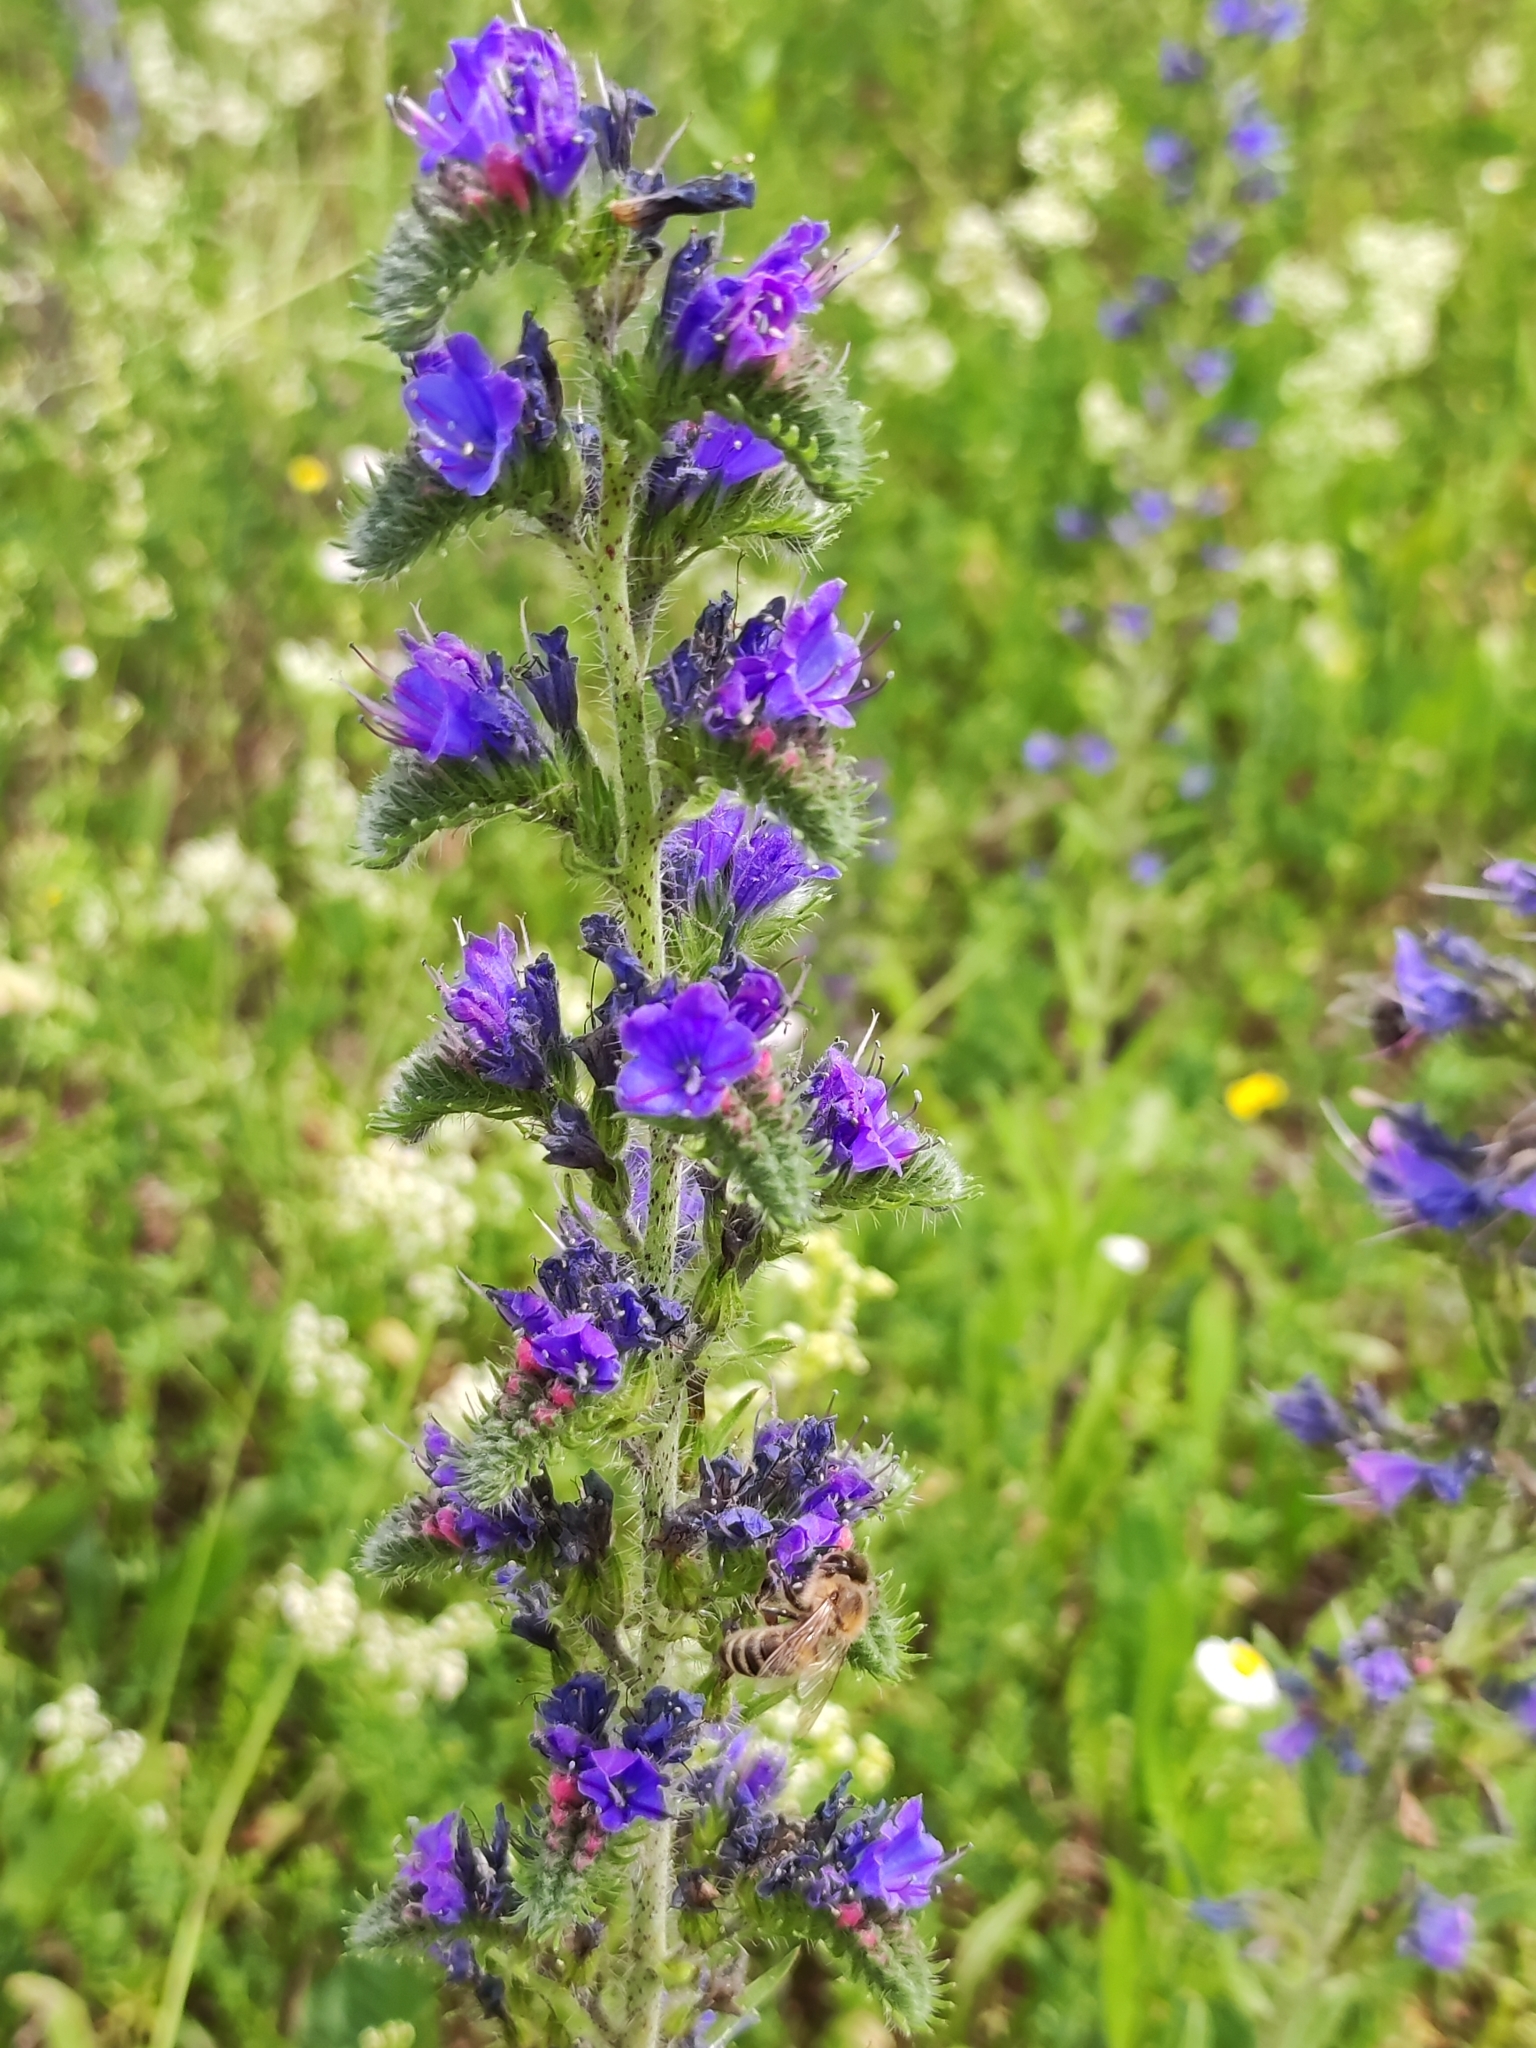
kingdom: Plantae
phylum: Tracheophyta
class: Magnoliopsida
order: Boraginales
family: Boraginaceae
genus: Echium
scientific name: Echium vulgare
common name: Common viper's bugloss
